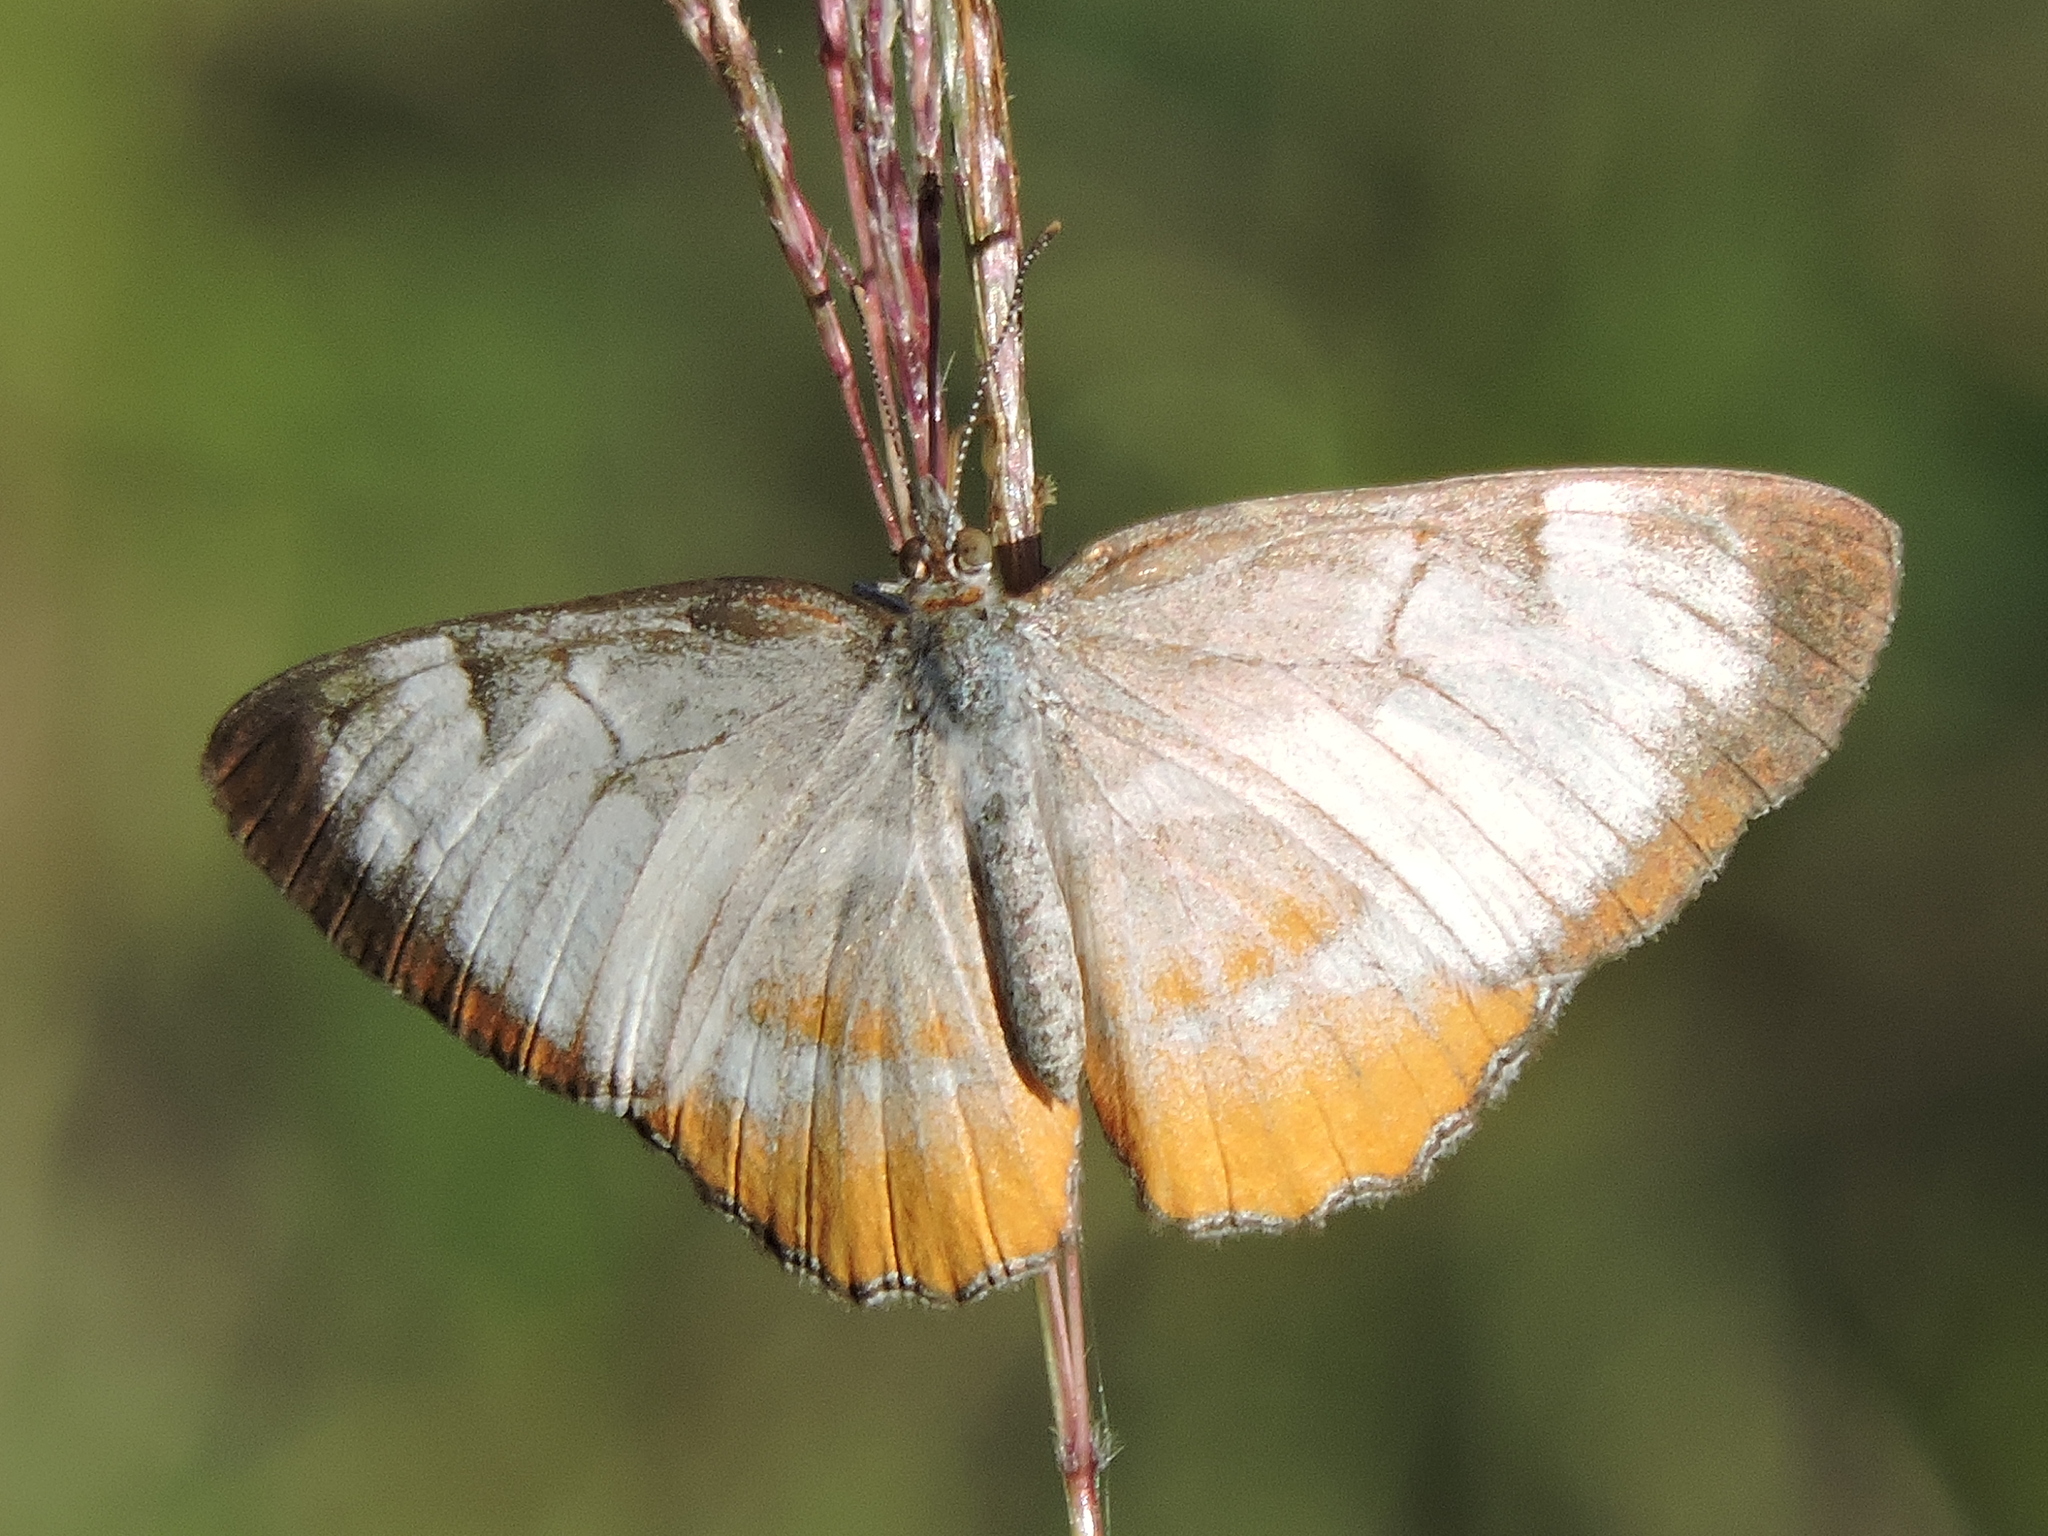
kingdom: Animalia
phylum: Arthropoda
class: Insecta
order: Lepidoptera
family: Nymphalidae
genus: Mestra
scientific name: Mestra amymone
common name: Common mestra
